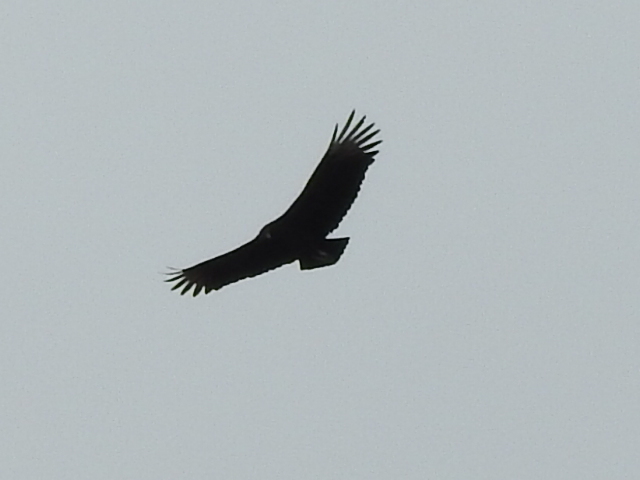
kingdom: Animalia
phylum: Chordata
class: Aves
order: Accipitriformes
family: Cathartidae
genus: Coragyps
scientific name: Coragyps atratus
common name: Black vulture
